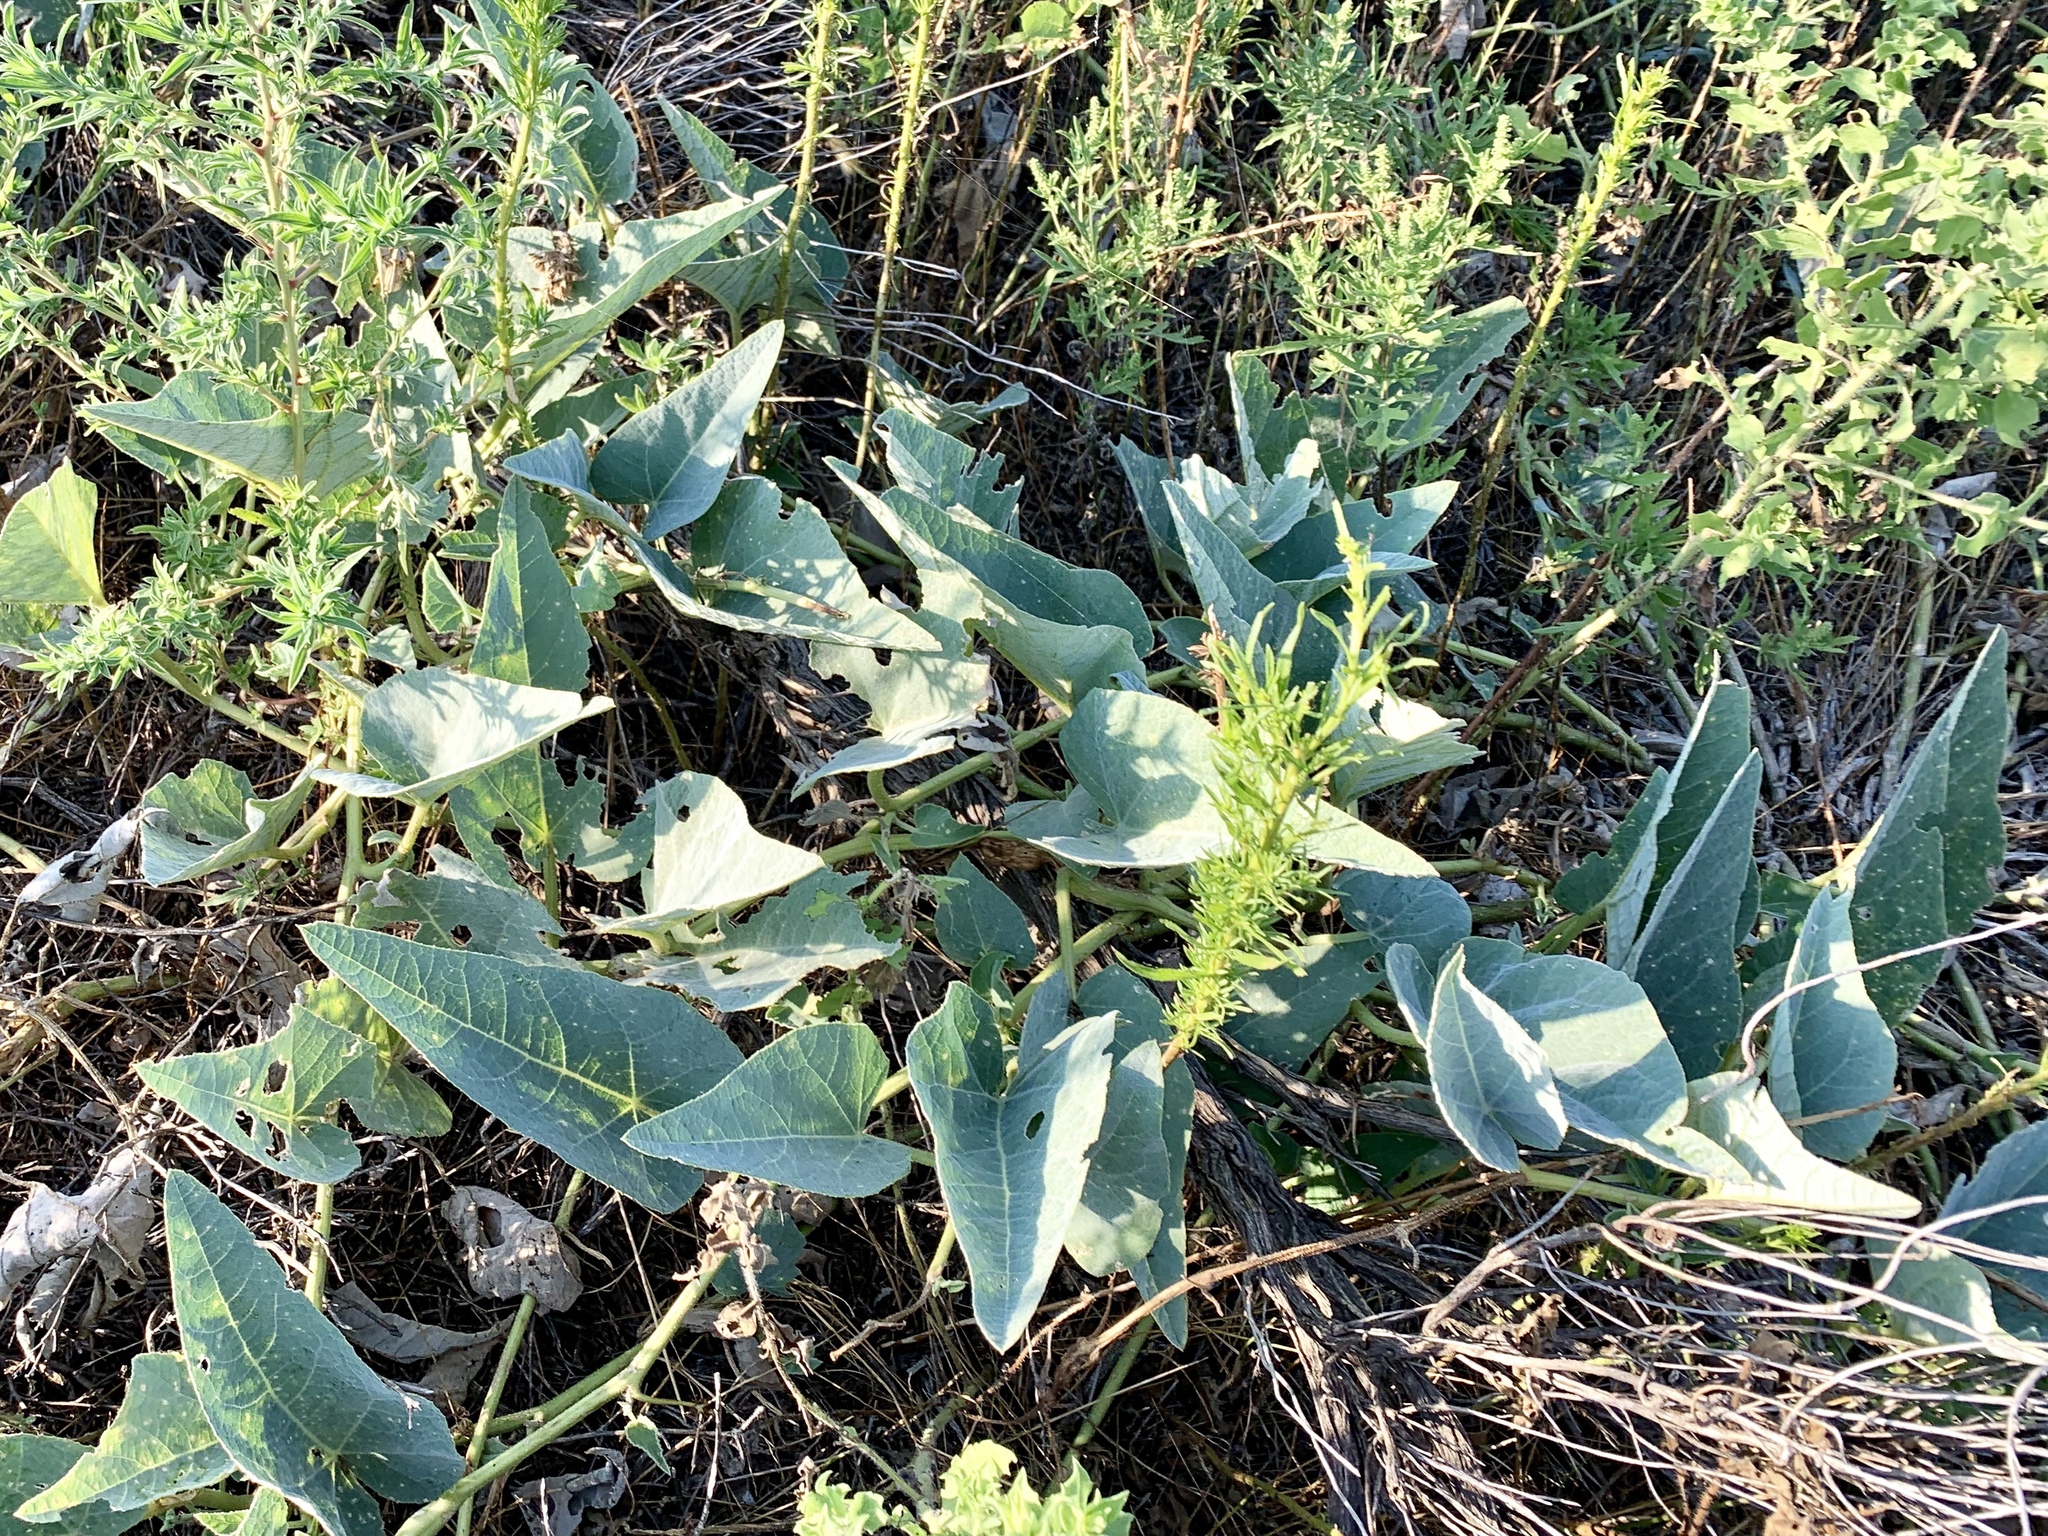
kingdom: Plantae
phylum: Tracheophyta
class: Magnoliopsida
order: Cucurbitales
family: Cucurbitaceae
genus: Cucurbita
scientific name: Cucurbita foetidissima
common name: Buffalo gourd
